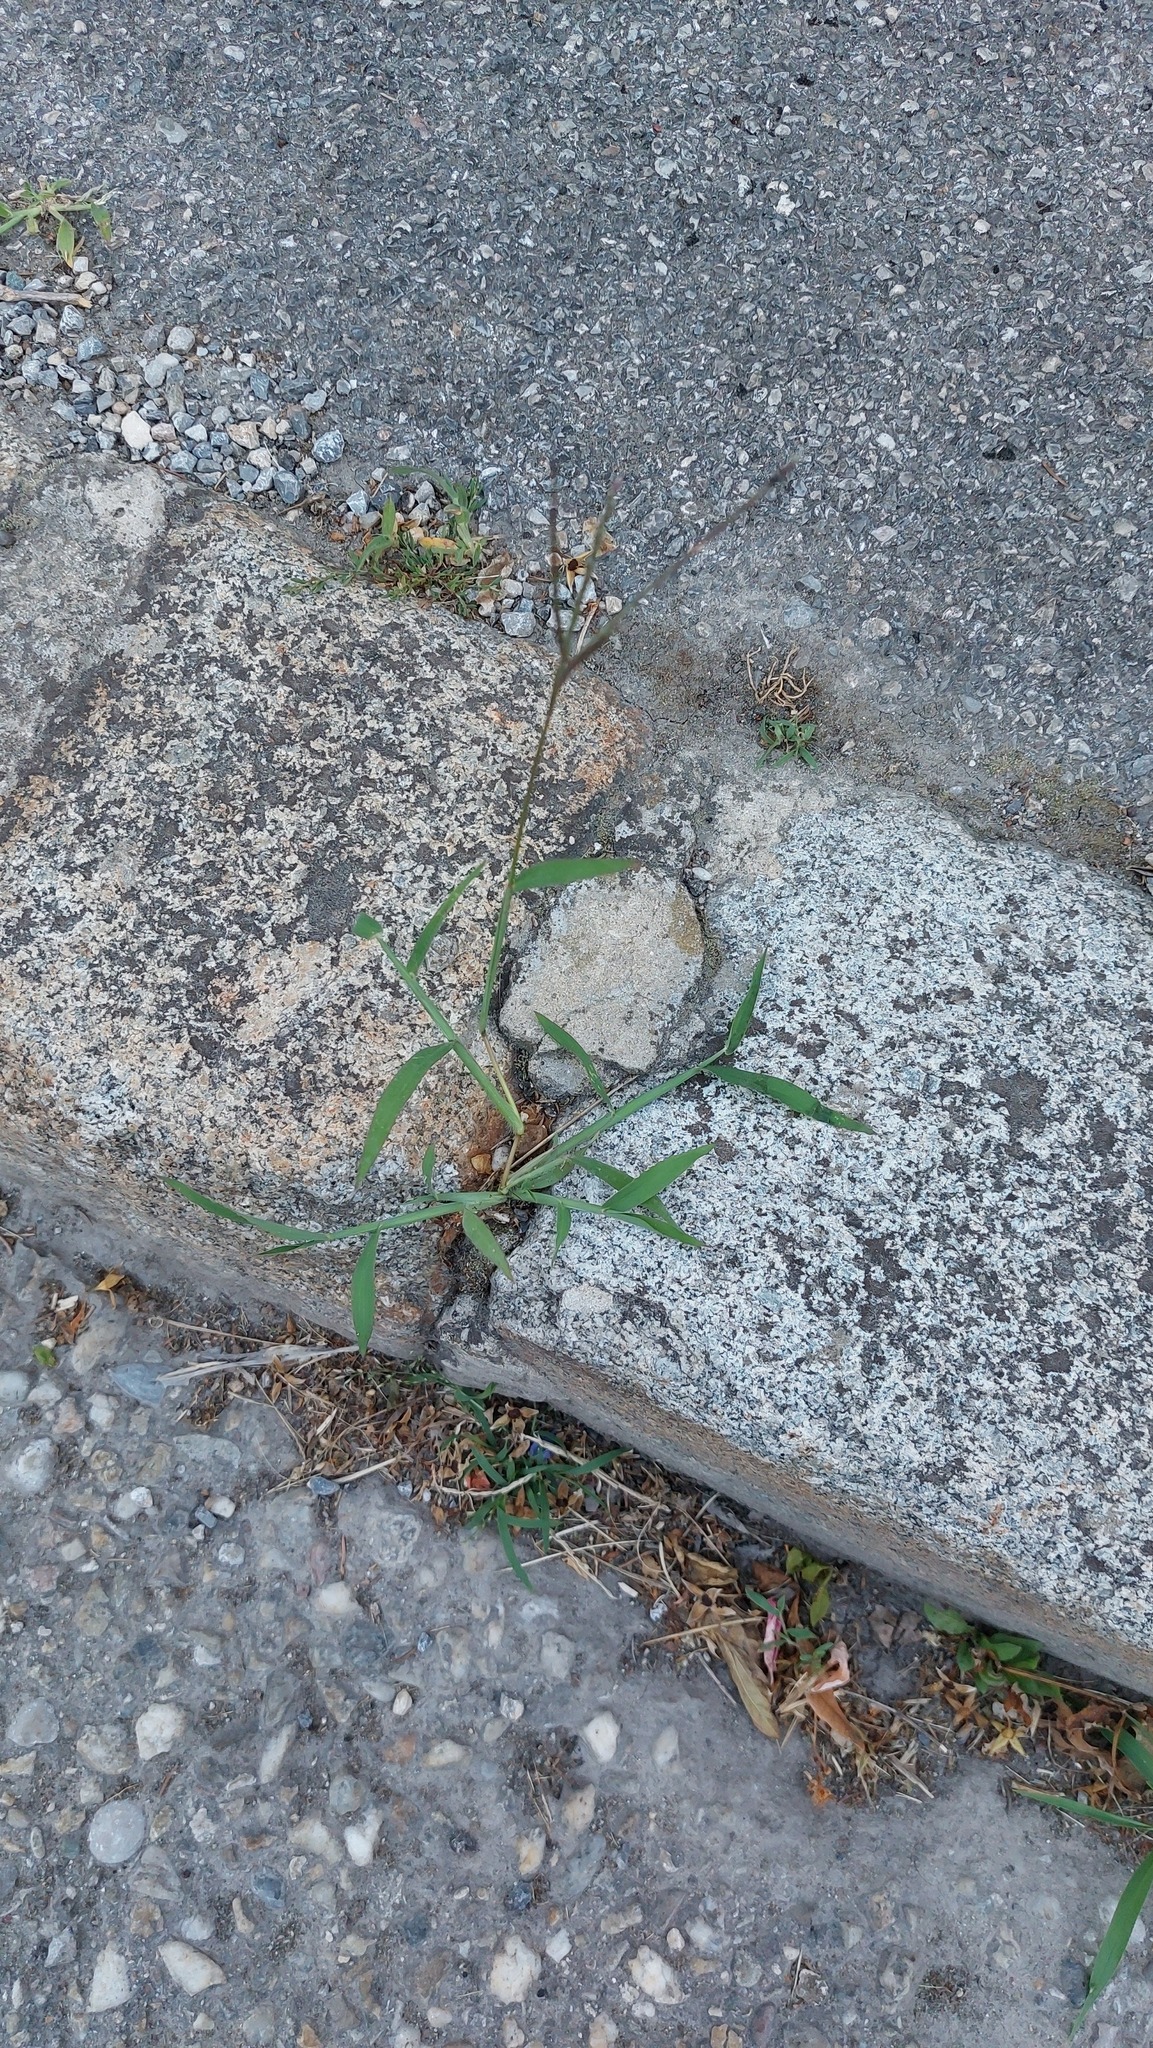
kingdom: Plantae
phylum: Tracheophyta
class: Liliopsida
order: Poales
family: Poaceae
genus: Digitaria
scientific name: Digitaria sanguinalis
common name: Hairy crabgrass
